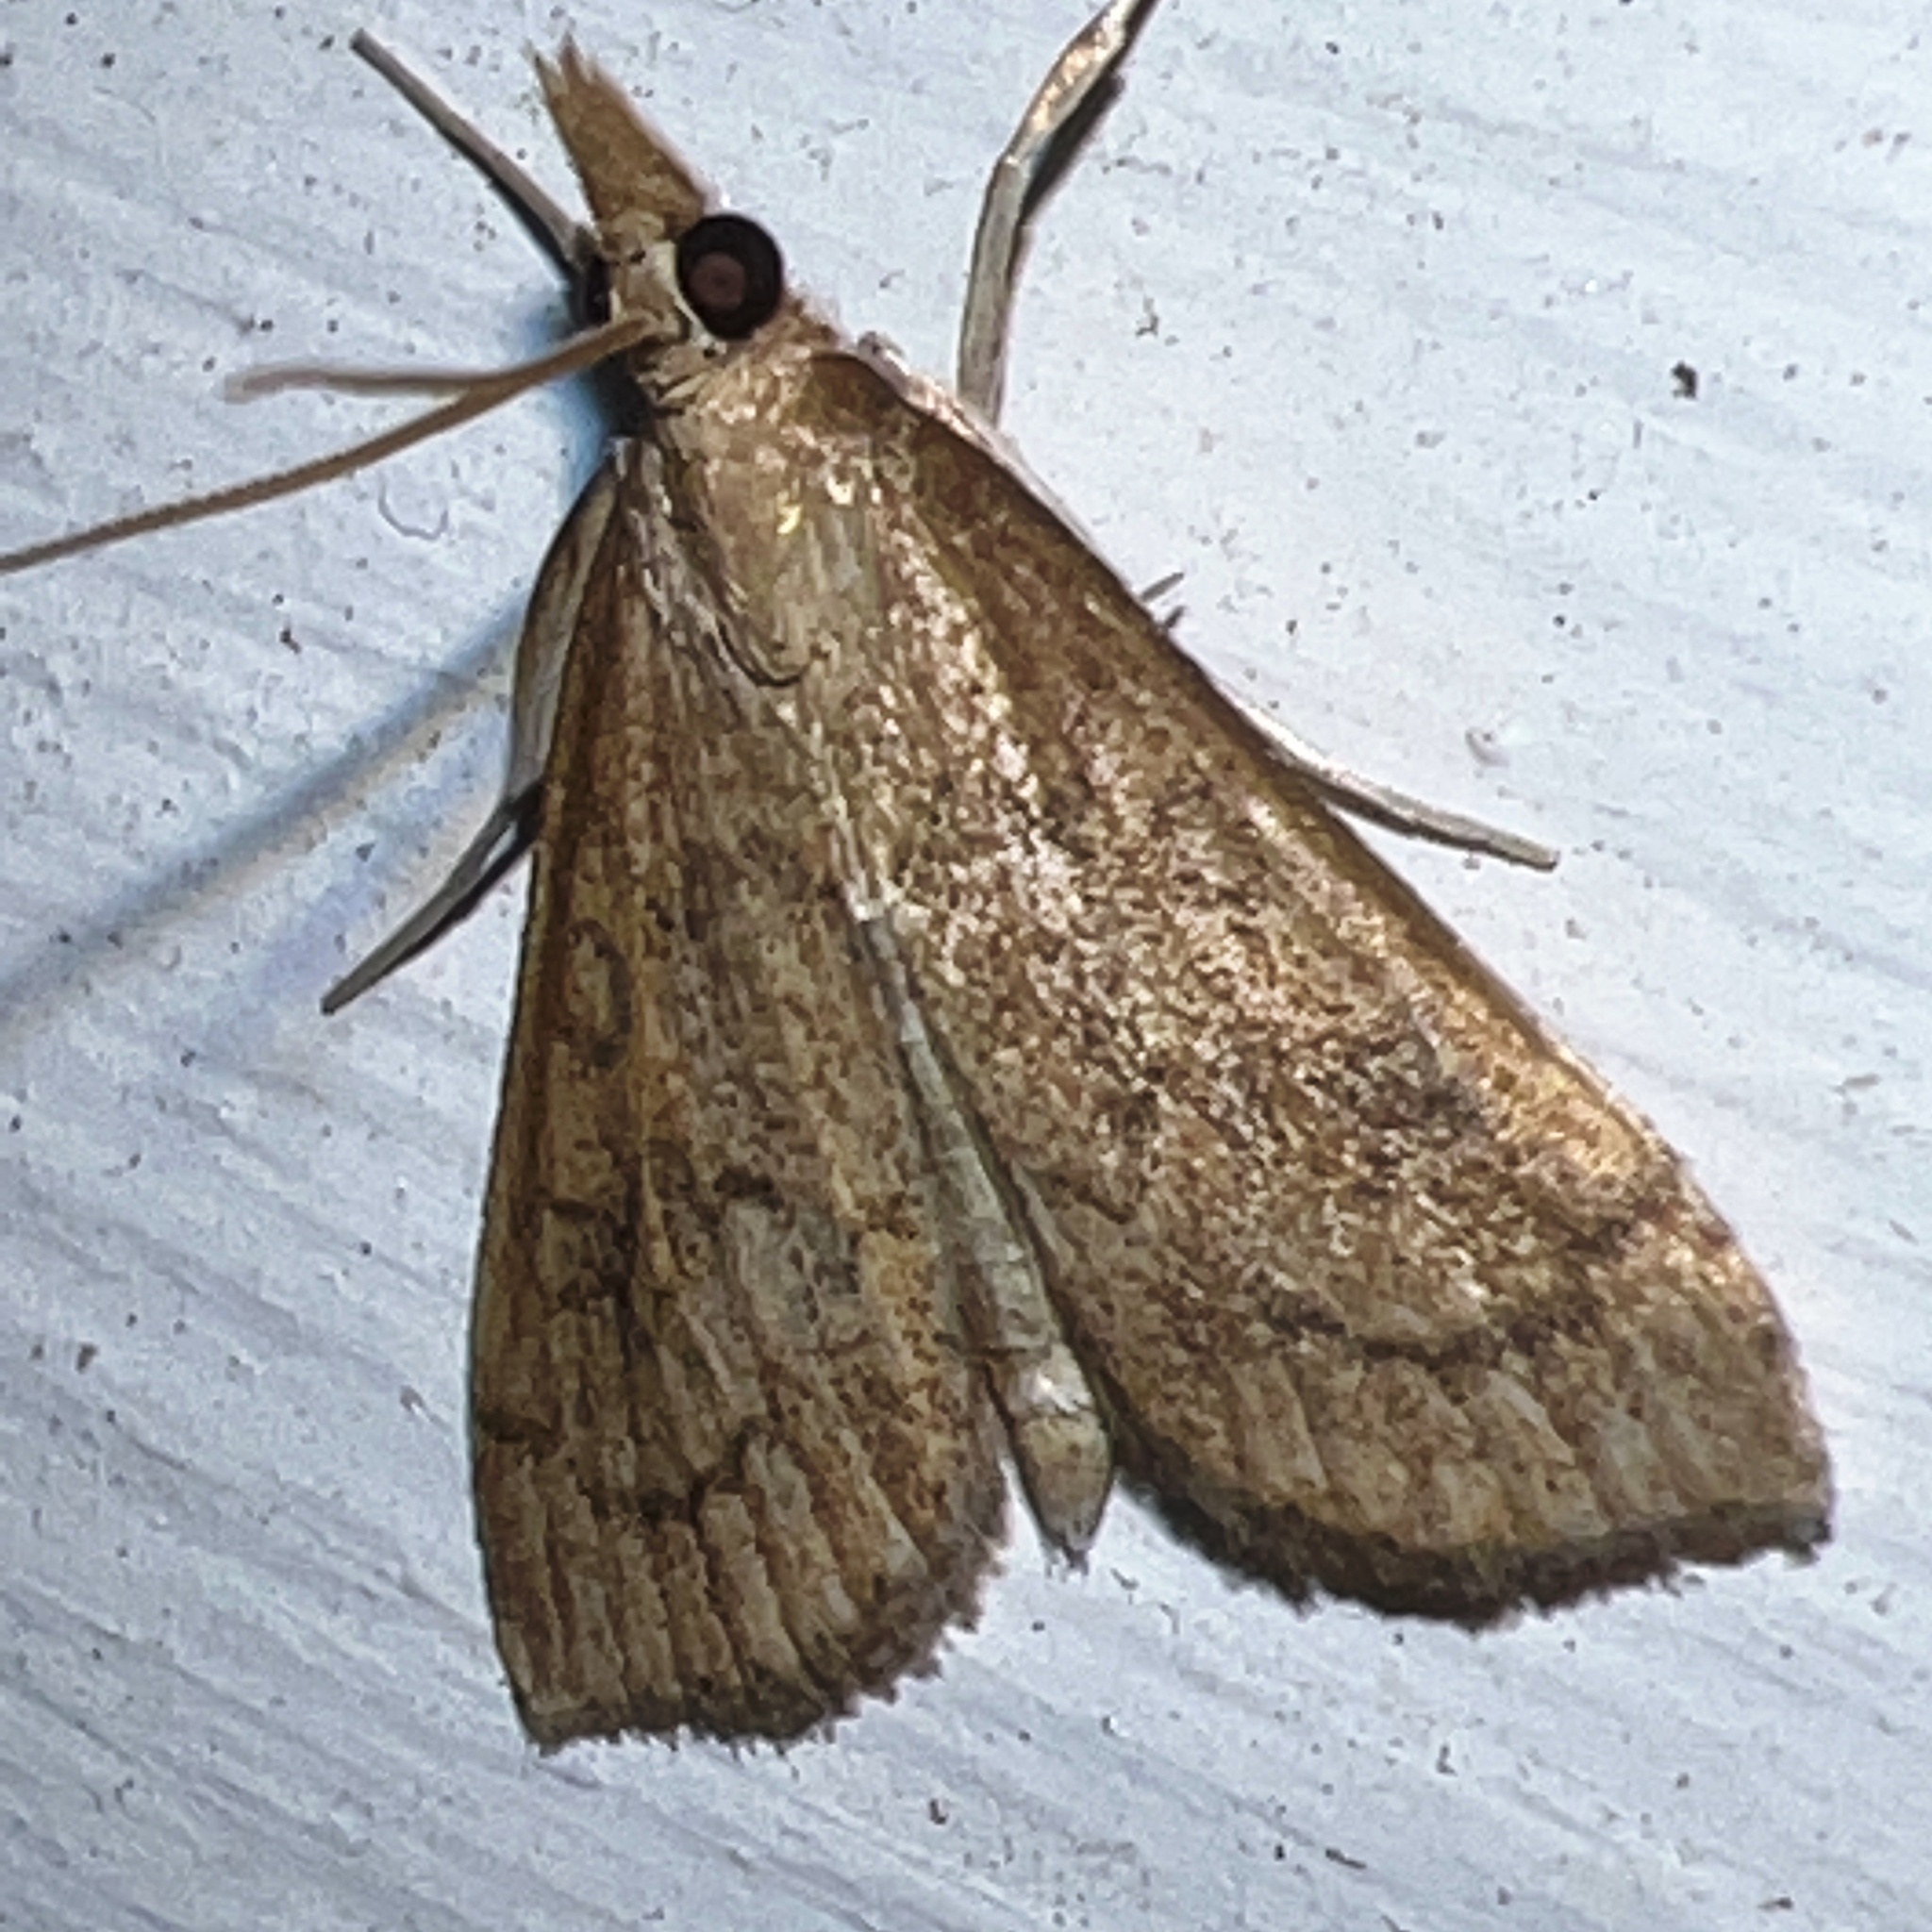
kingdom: Animalia
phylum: Arthropoda
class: Insecta
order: Lepidoptera
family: Crambidae
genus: Udea
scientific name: Udea rubigalis
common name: Celery leaftier moth
